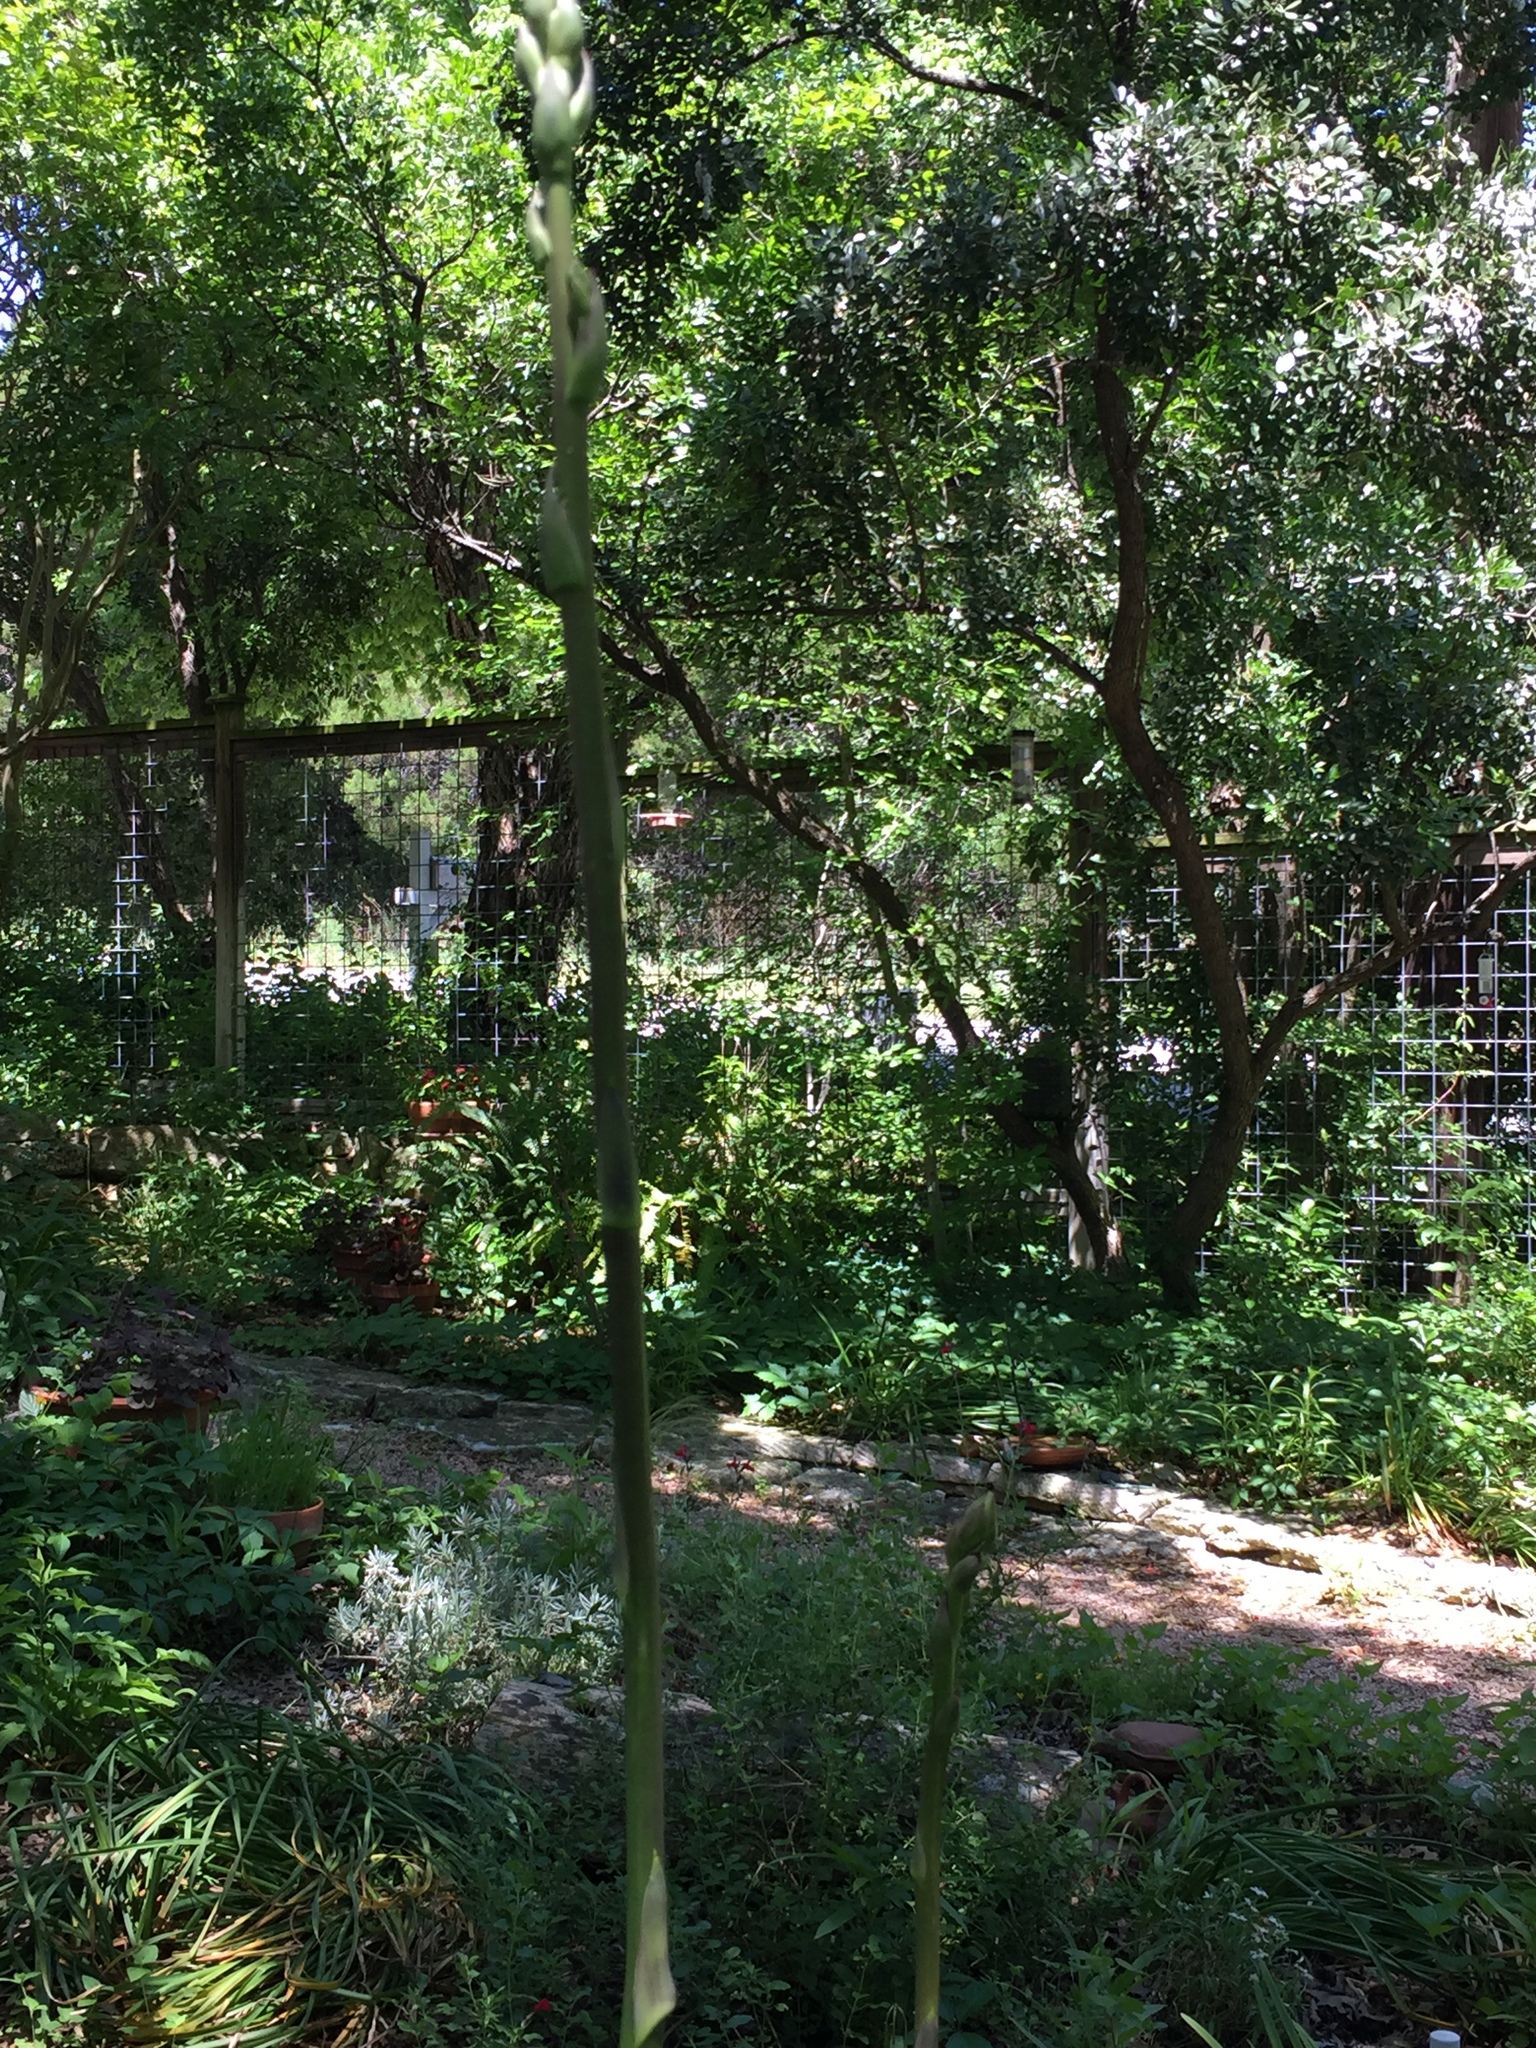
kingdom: Plantae
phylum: Tracheophyta
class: Liliopsida
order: Asparagales
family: Asparagaceae
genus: Yucca
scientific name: Yucca rupicola
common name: Twisted-leaf spanish-dagger
